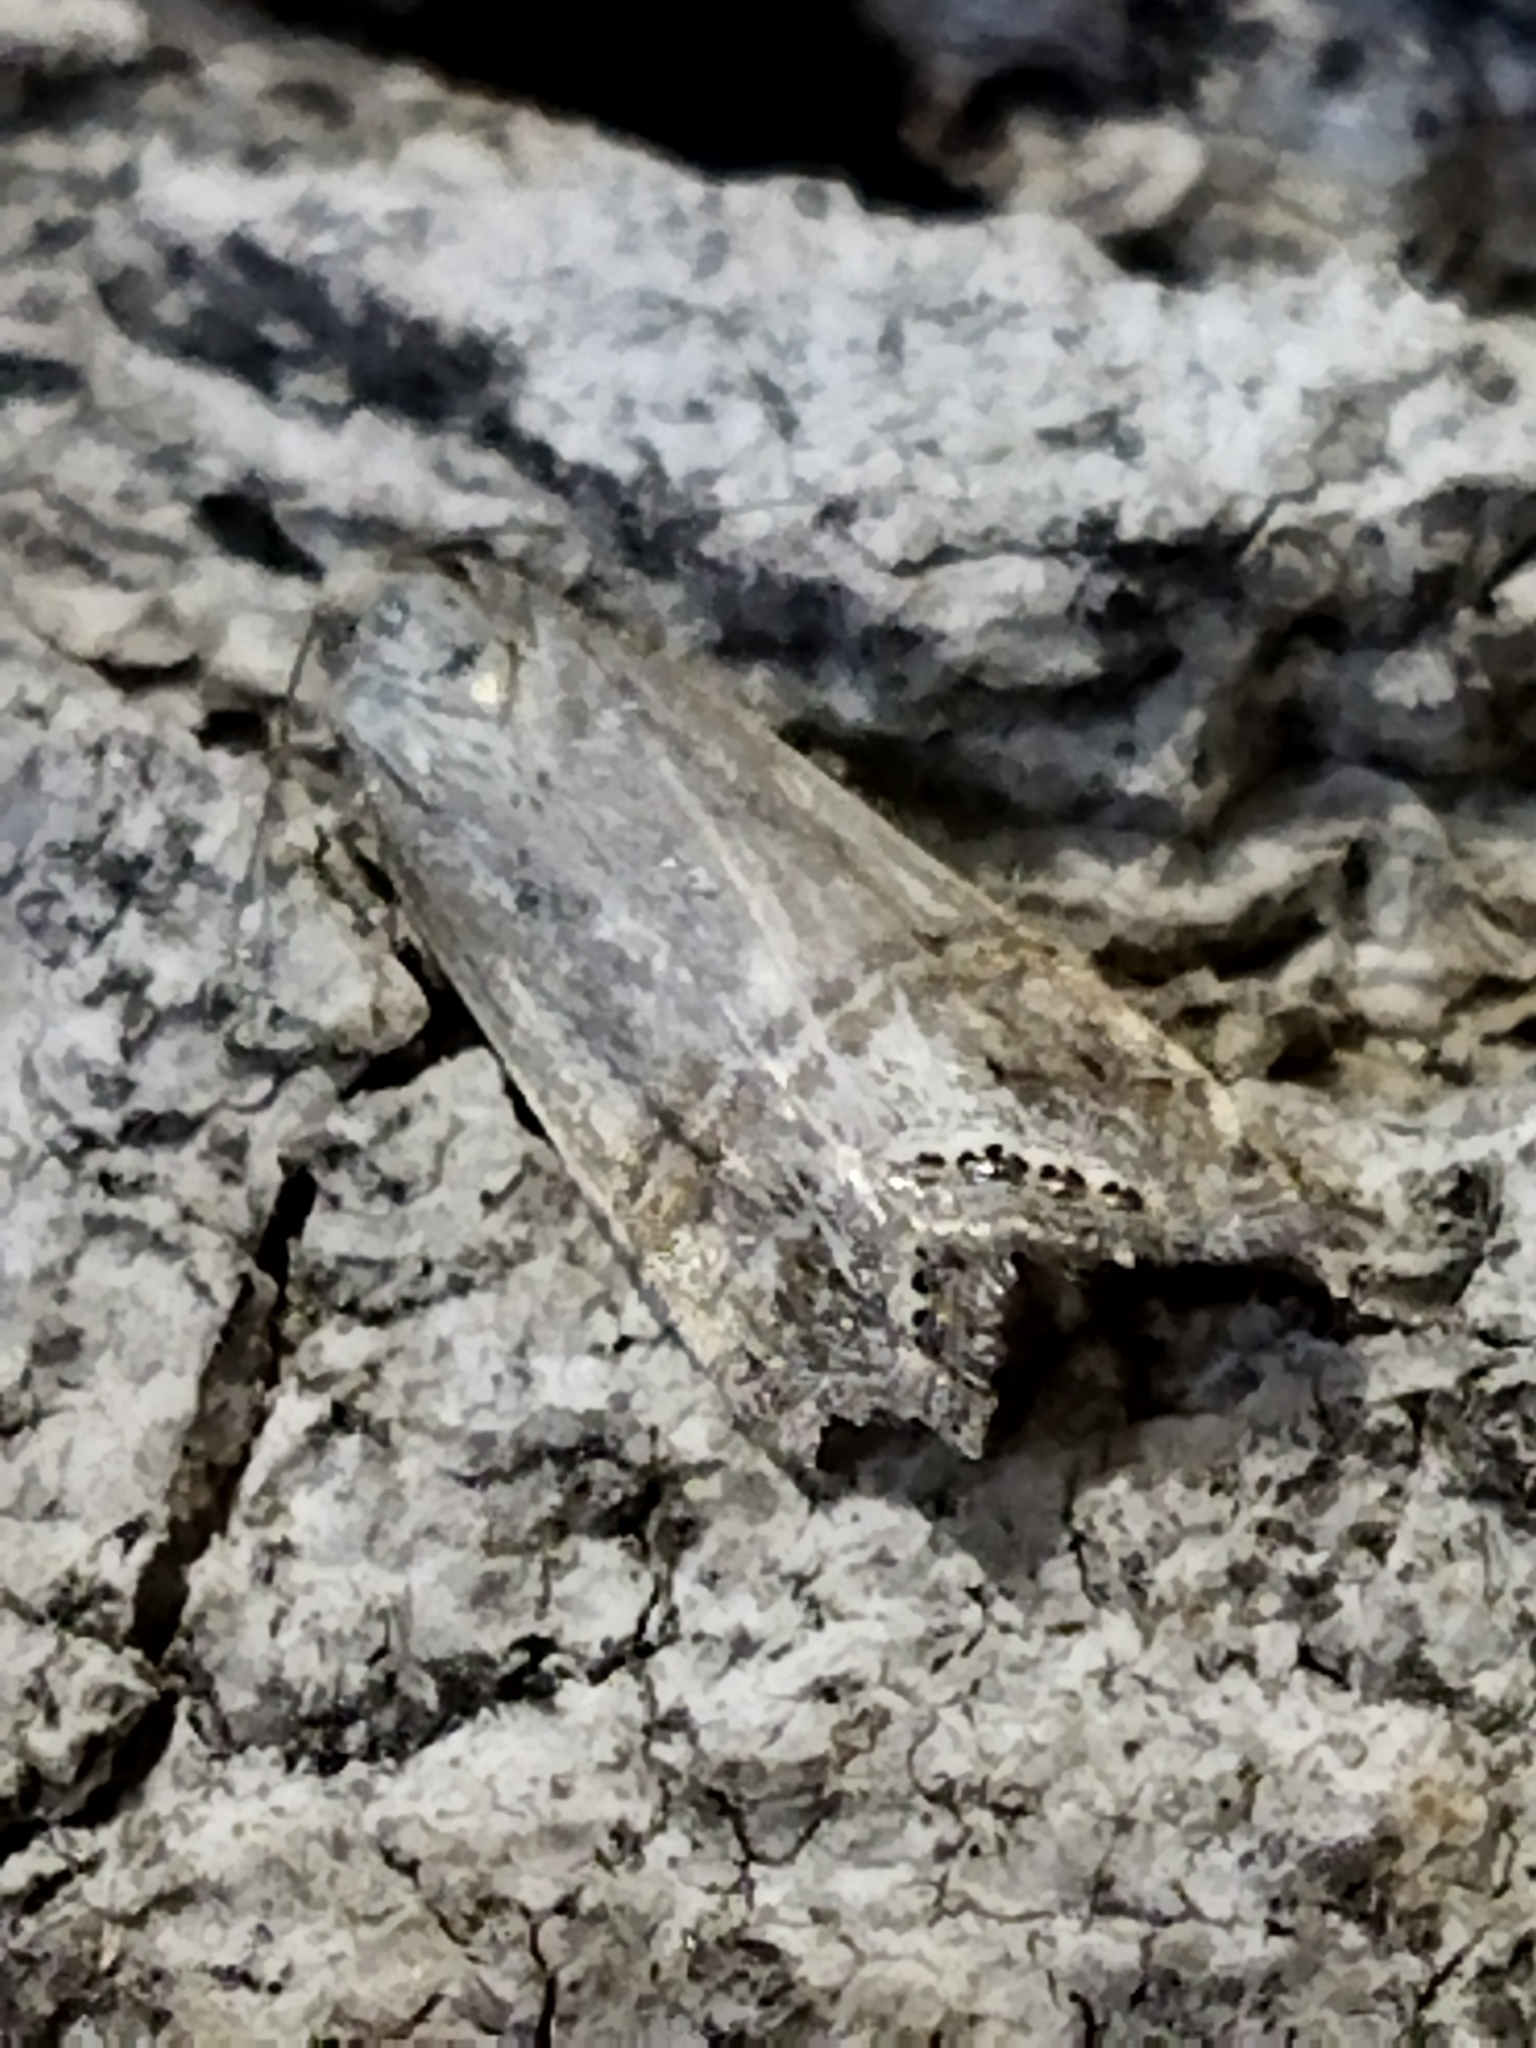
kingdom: Animalia
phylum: Arthropoda
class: Insecta
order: Lepidoptera
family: Crambidae
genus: Euchromius
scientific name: Euchromius ocellea
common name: Necklace veneer moth
